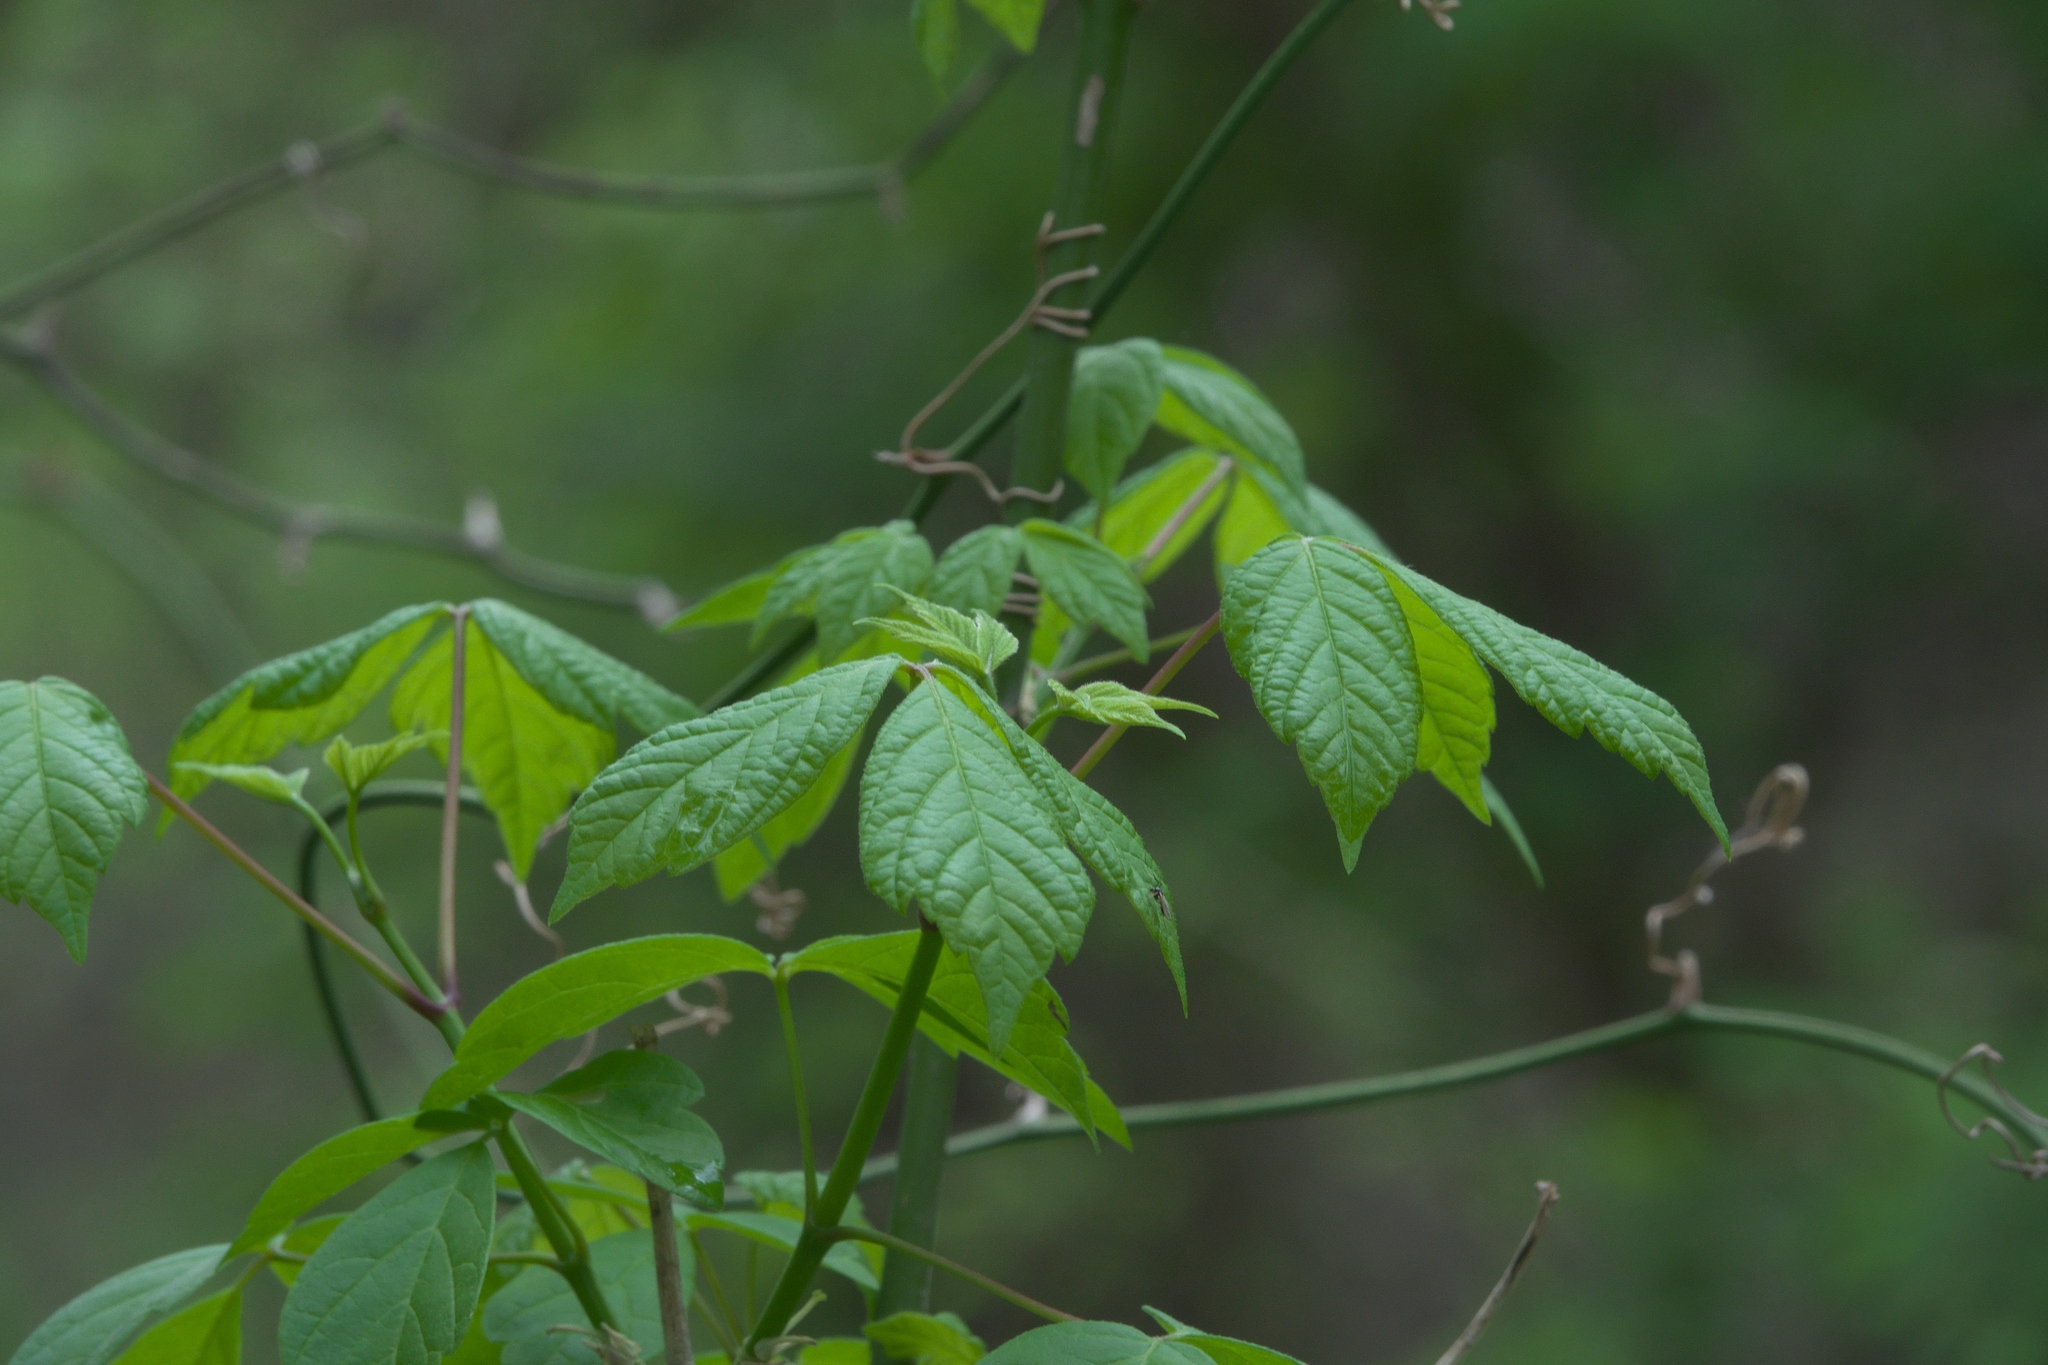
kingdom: Plantae
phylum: Tracheophyta
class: Magnoliopsida
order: Sapindales
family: Sapindaceae
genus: Acer
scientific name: Acer negundo
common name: Ashleaf maple
